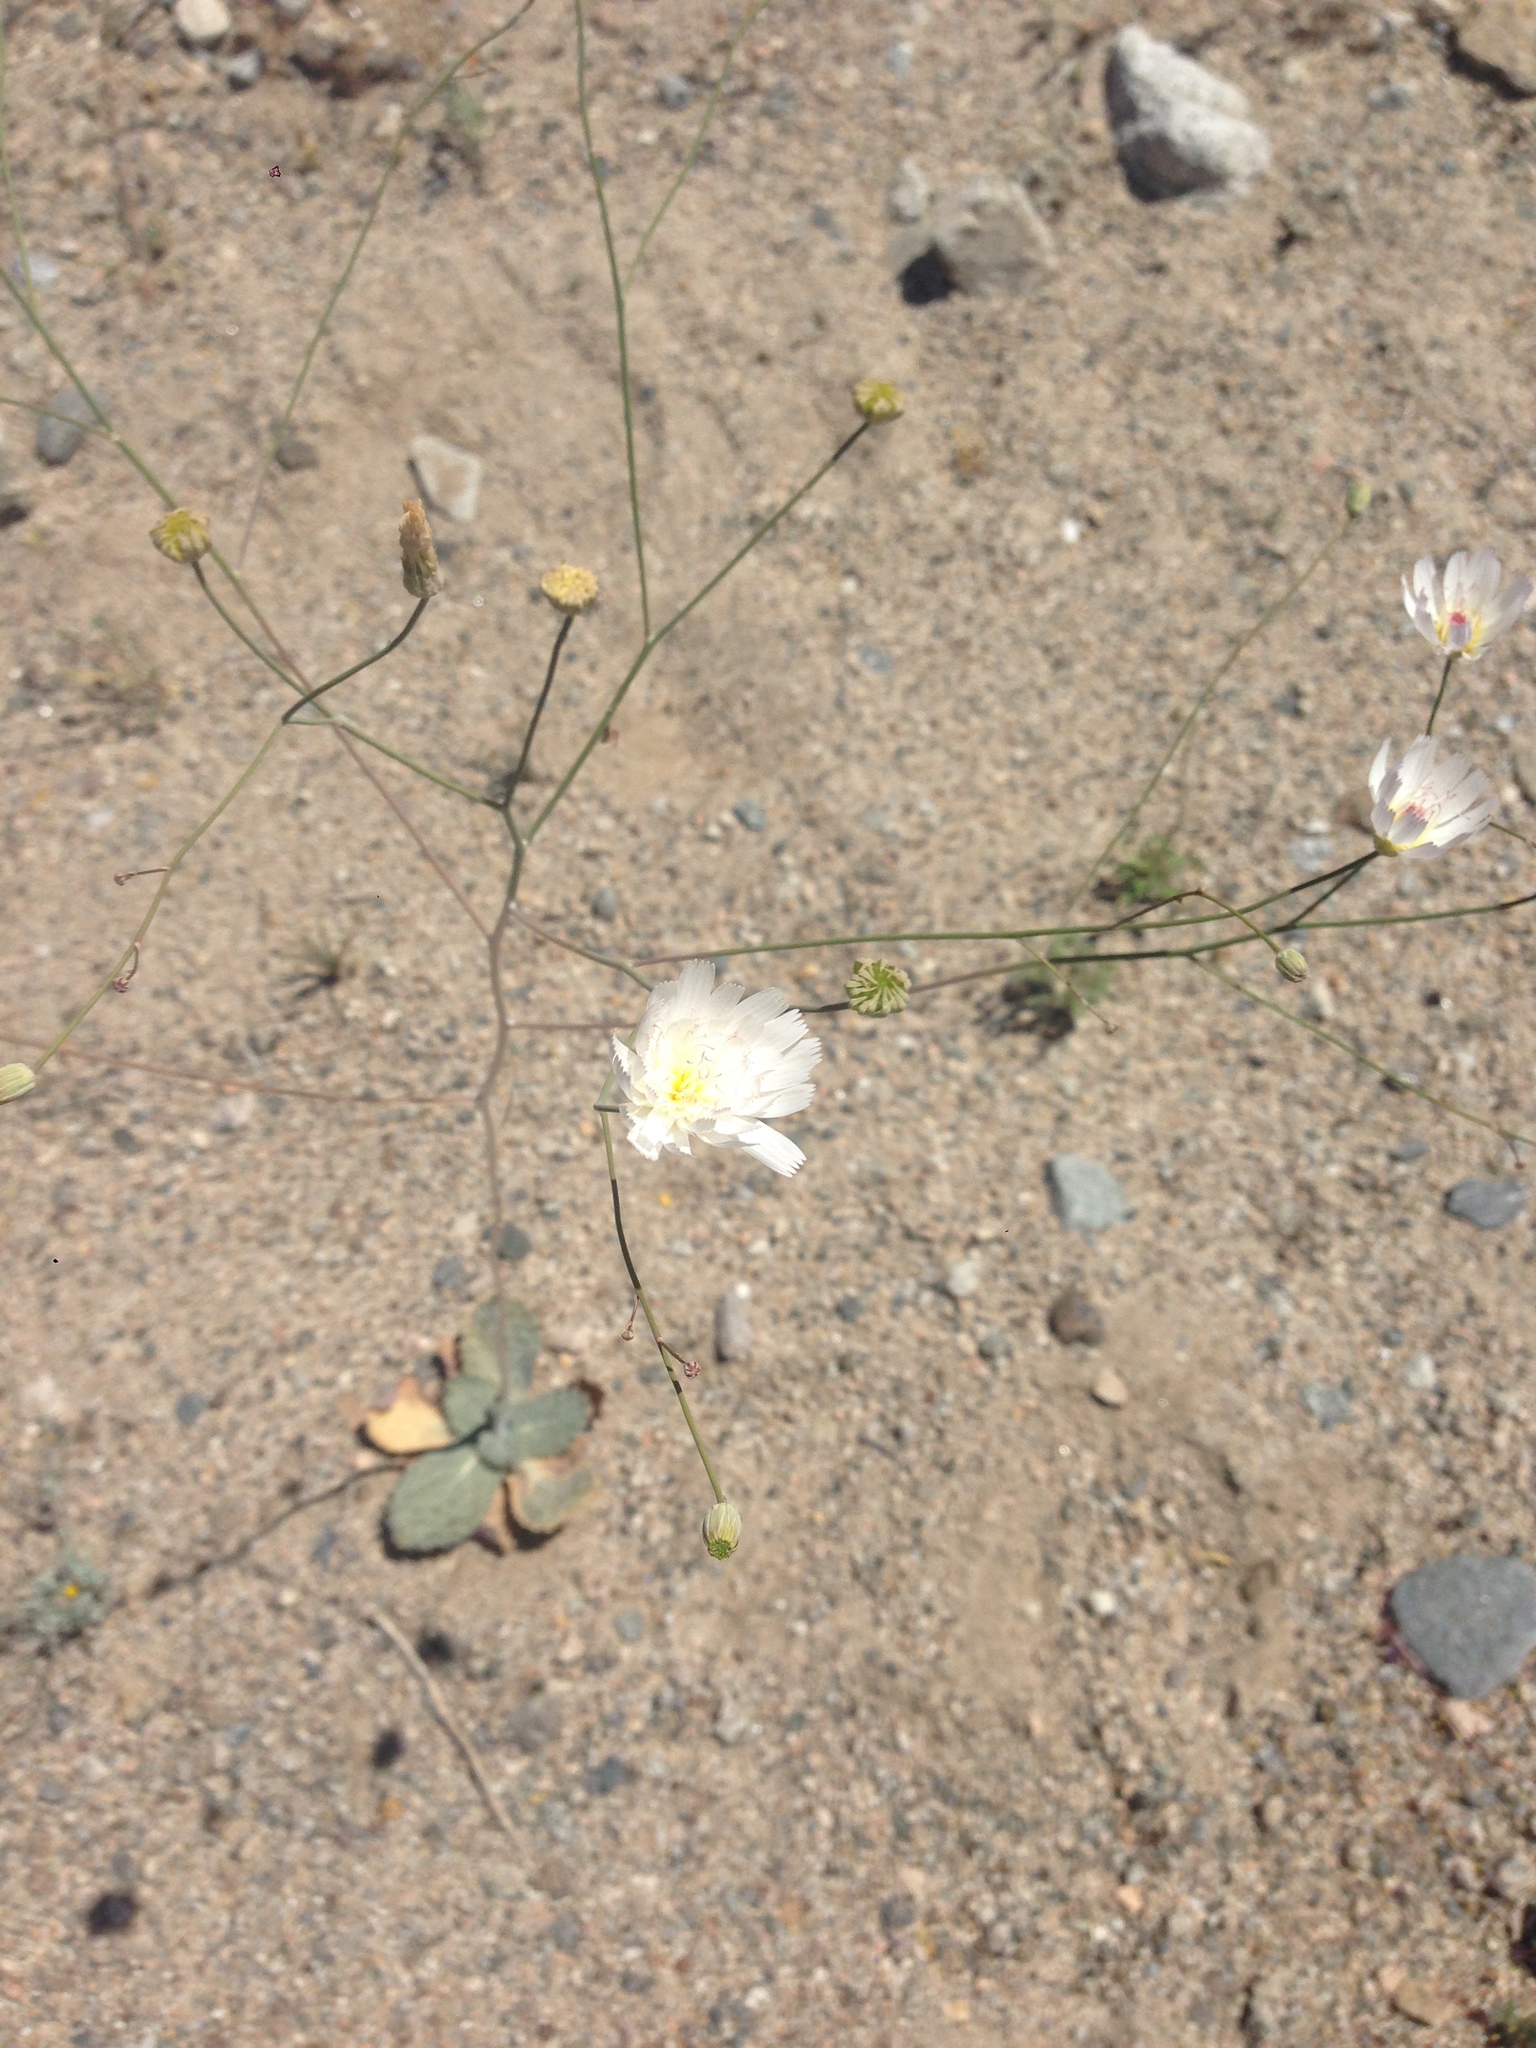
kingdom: Plantae
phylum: Tracheophyta
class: Magnoliopsida
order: Asterales
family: Asteraceae
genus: Atrichoseris
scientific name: Atrichoseris platyphylla
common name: Tobaccoweed
